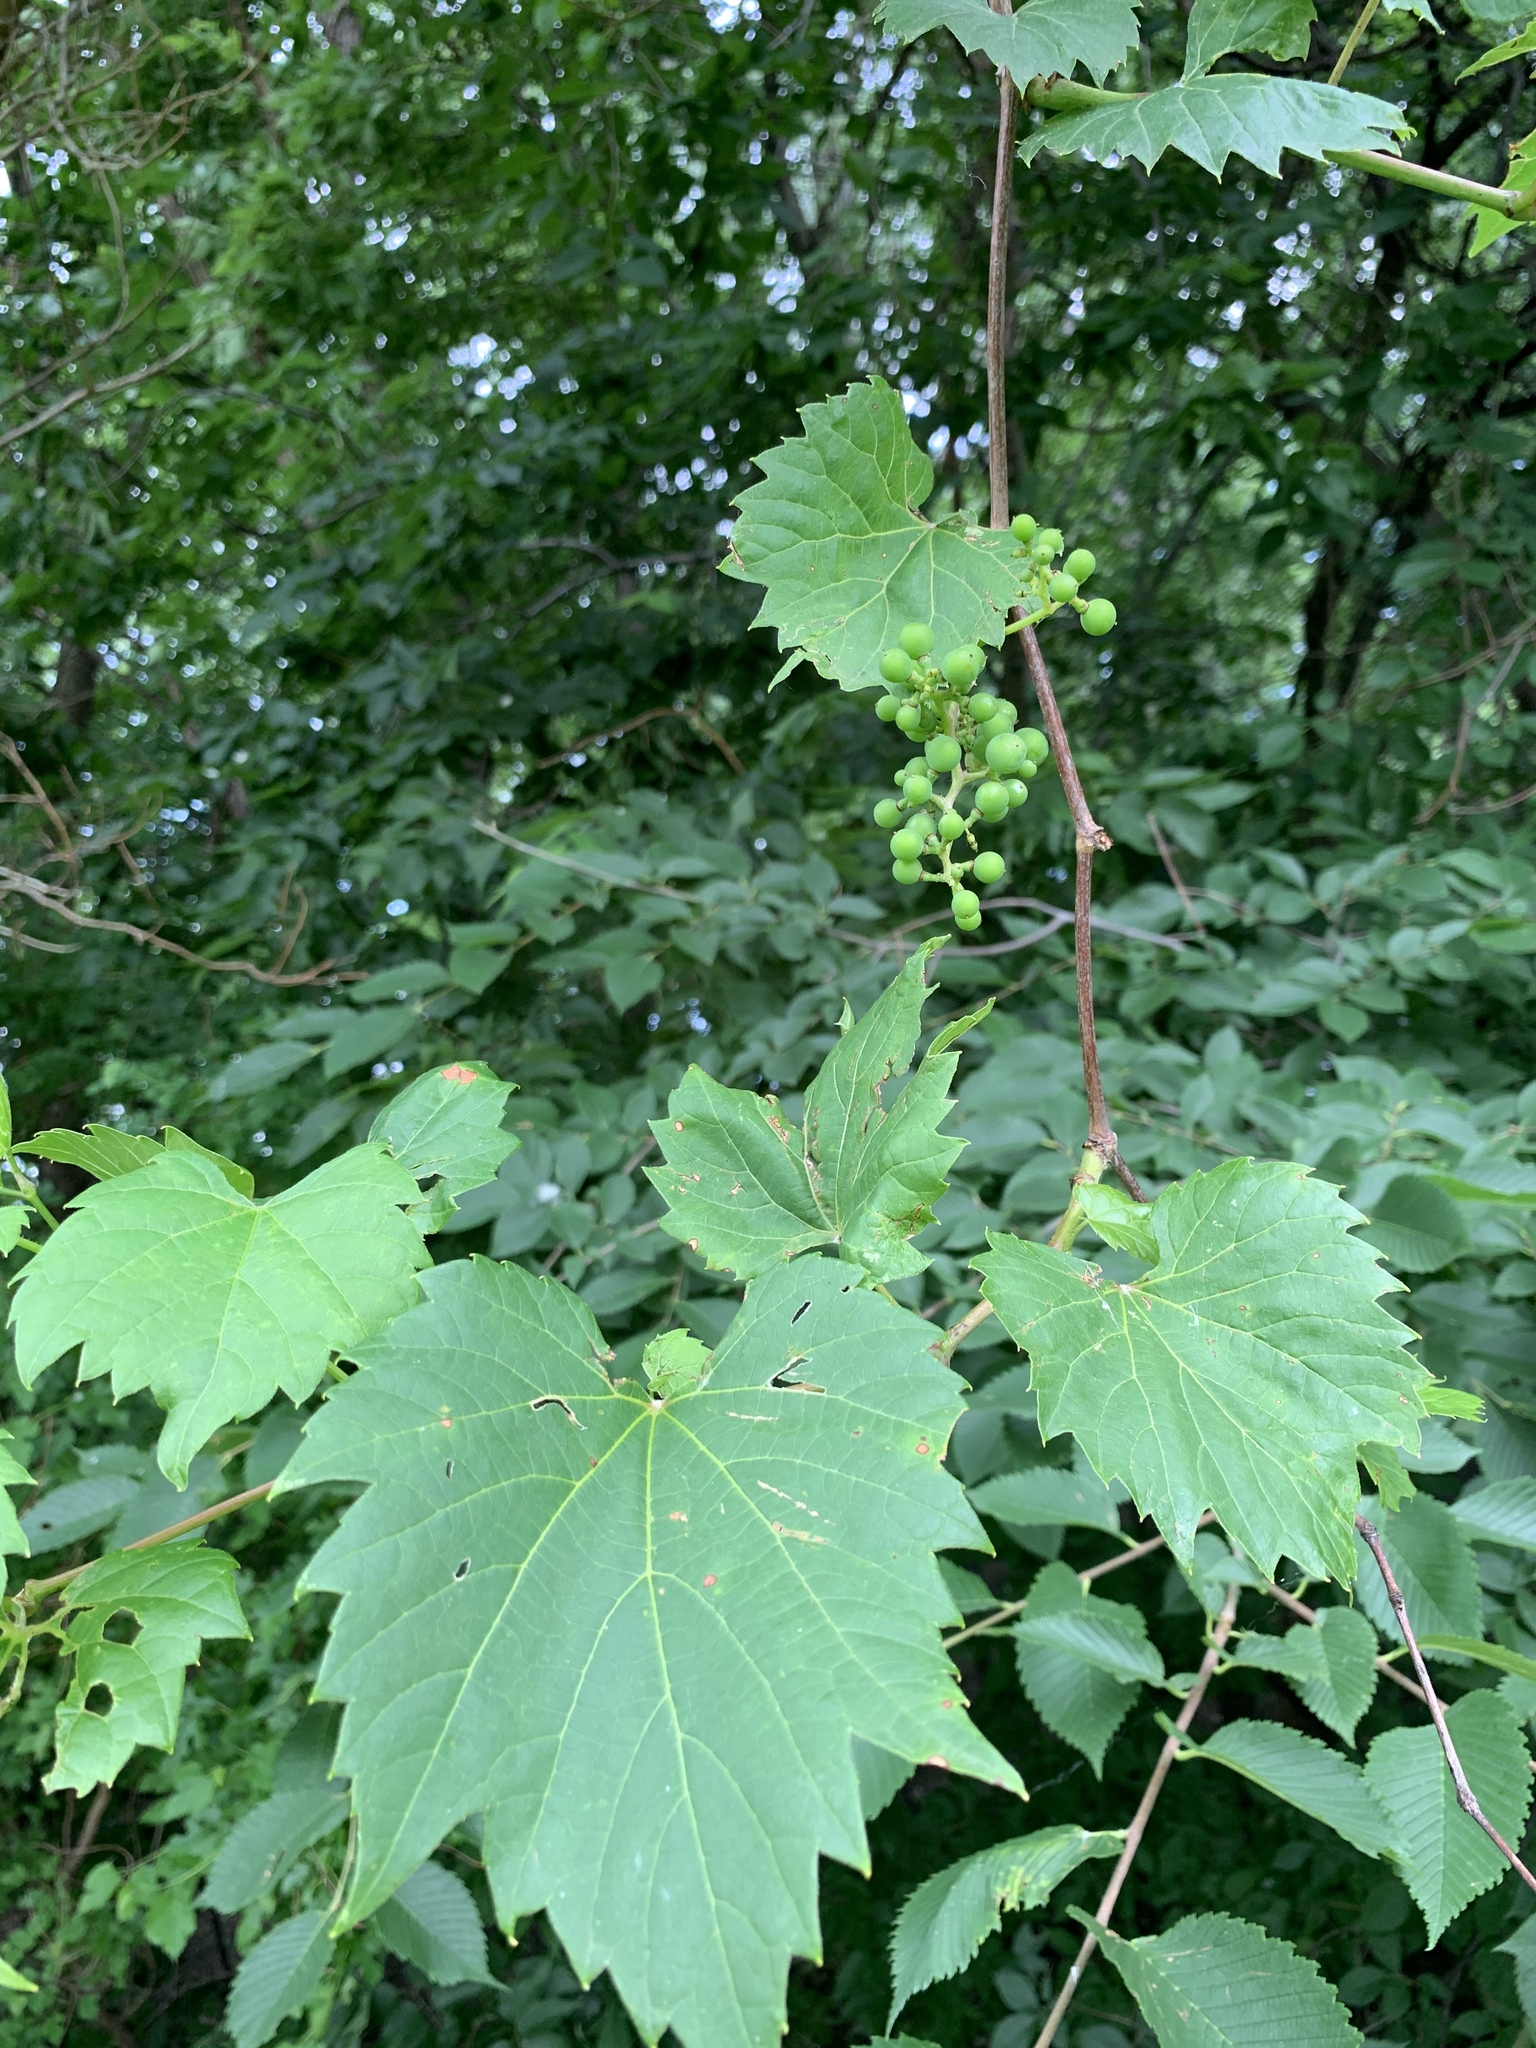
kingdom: Plantae
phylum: Tracheophyta
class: Magnoliopsida
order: Vitales
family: Vitaceae
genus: Vitis
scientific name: Vitis riparia
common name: Frost grape
